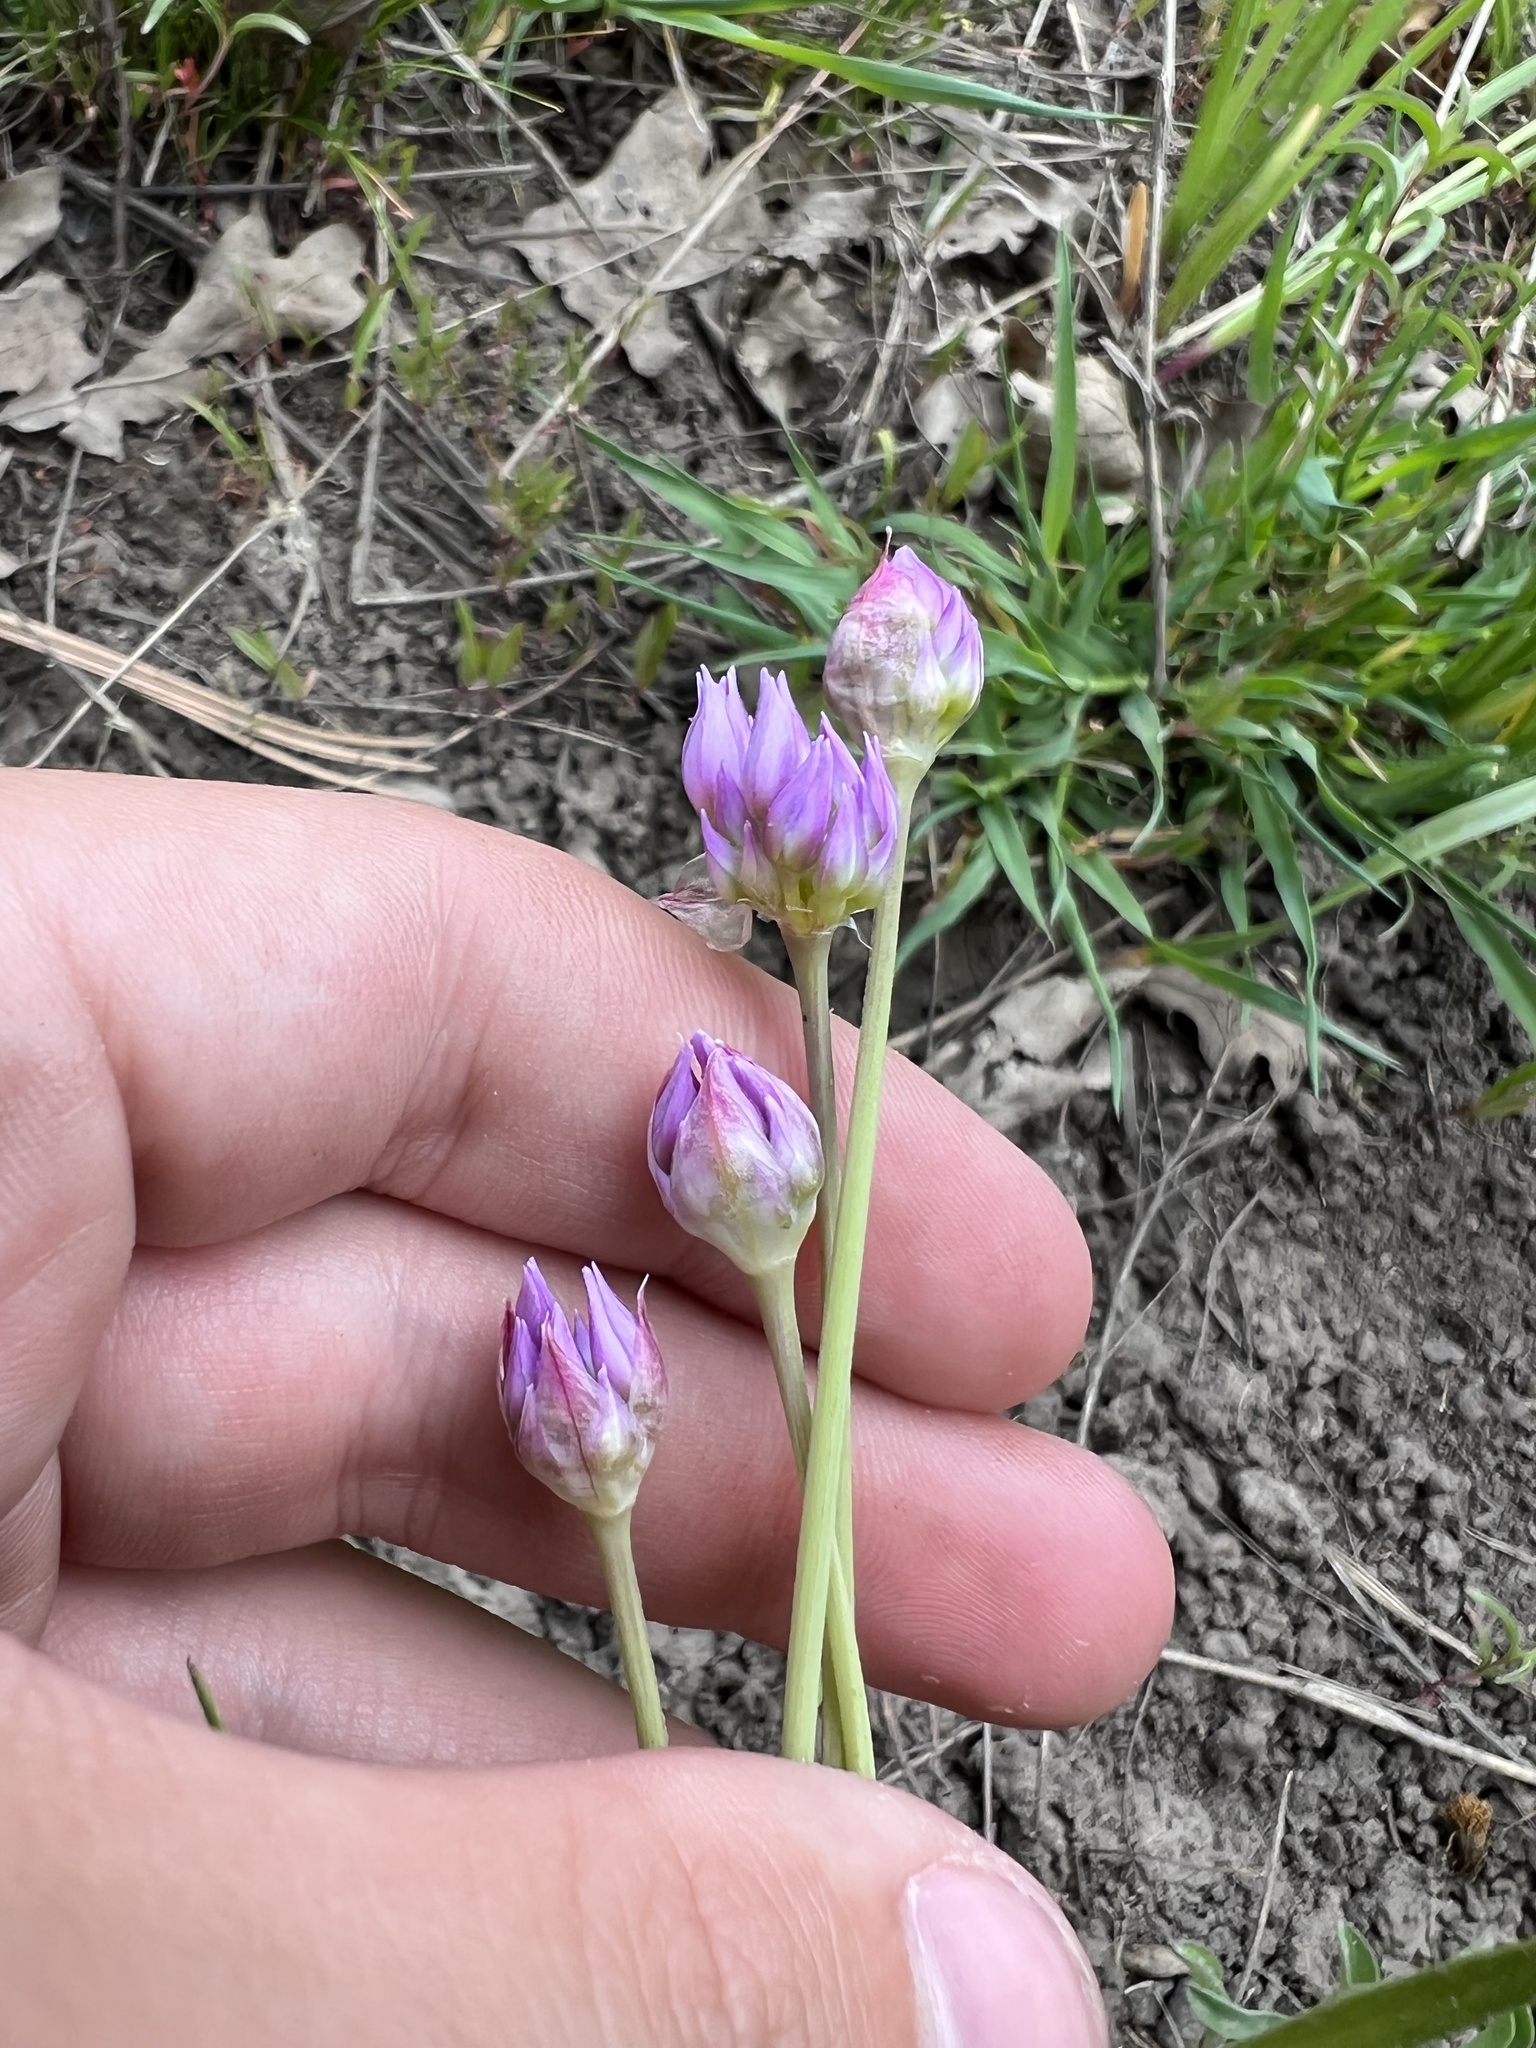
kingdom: Plantae
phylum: Tracheophyta
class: Liliopsida
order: Asparagales
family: Amaryllidaceae
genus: Allium
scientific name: Allium geyeri
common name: Geyer's onion
